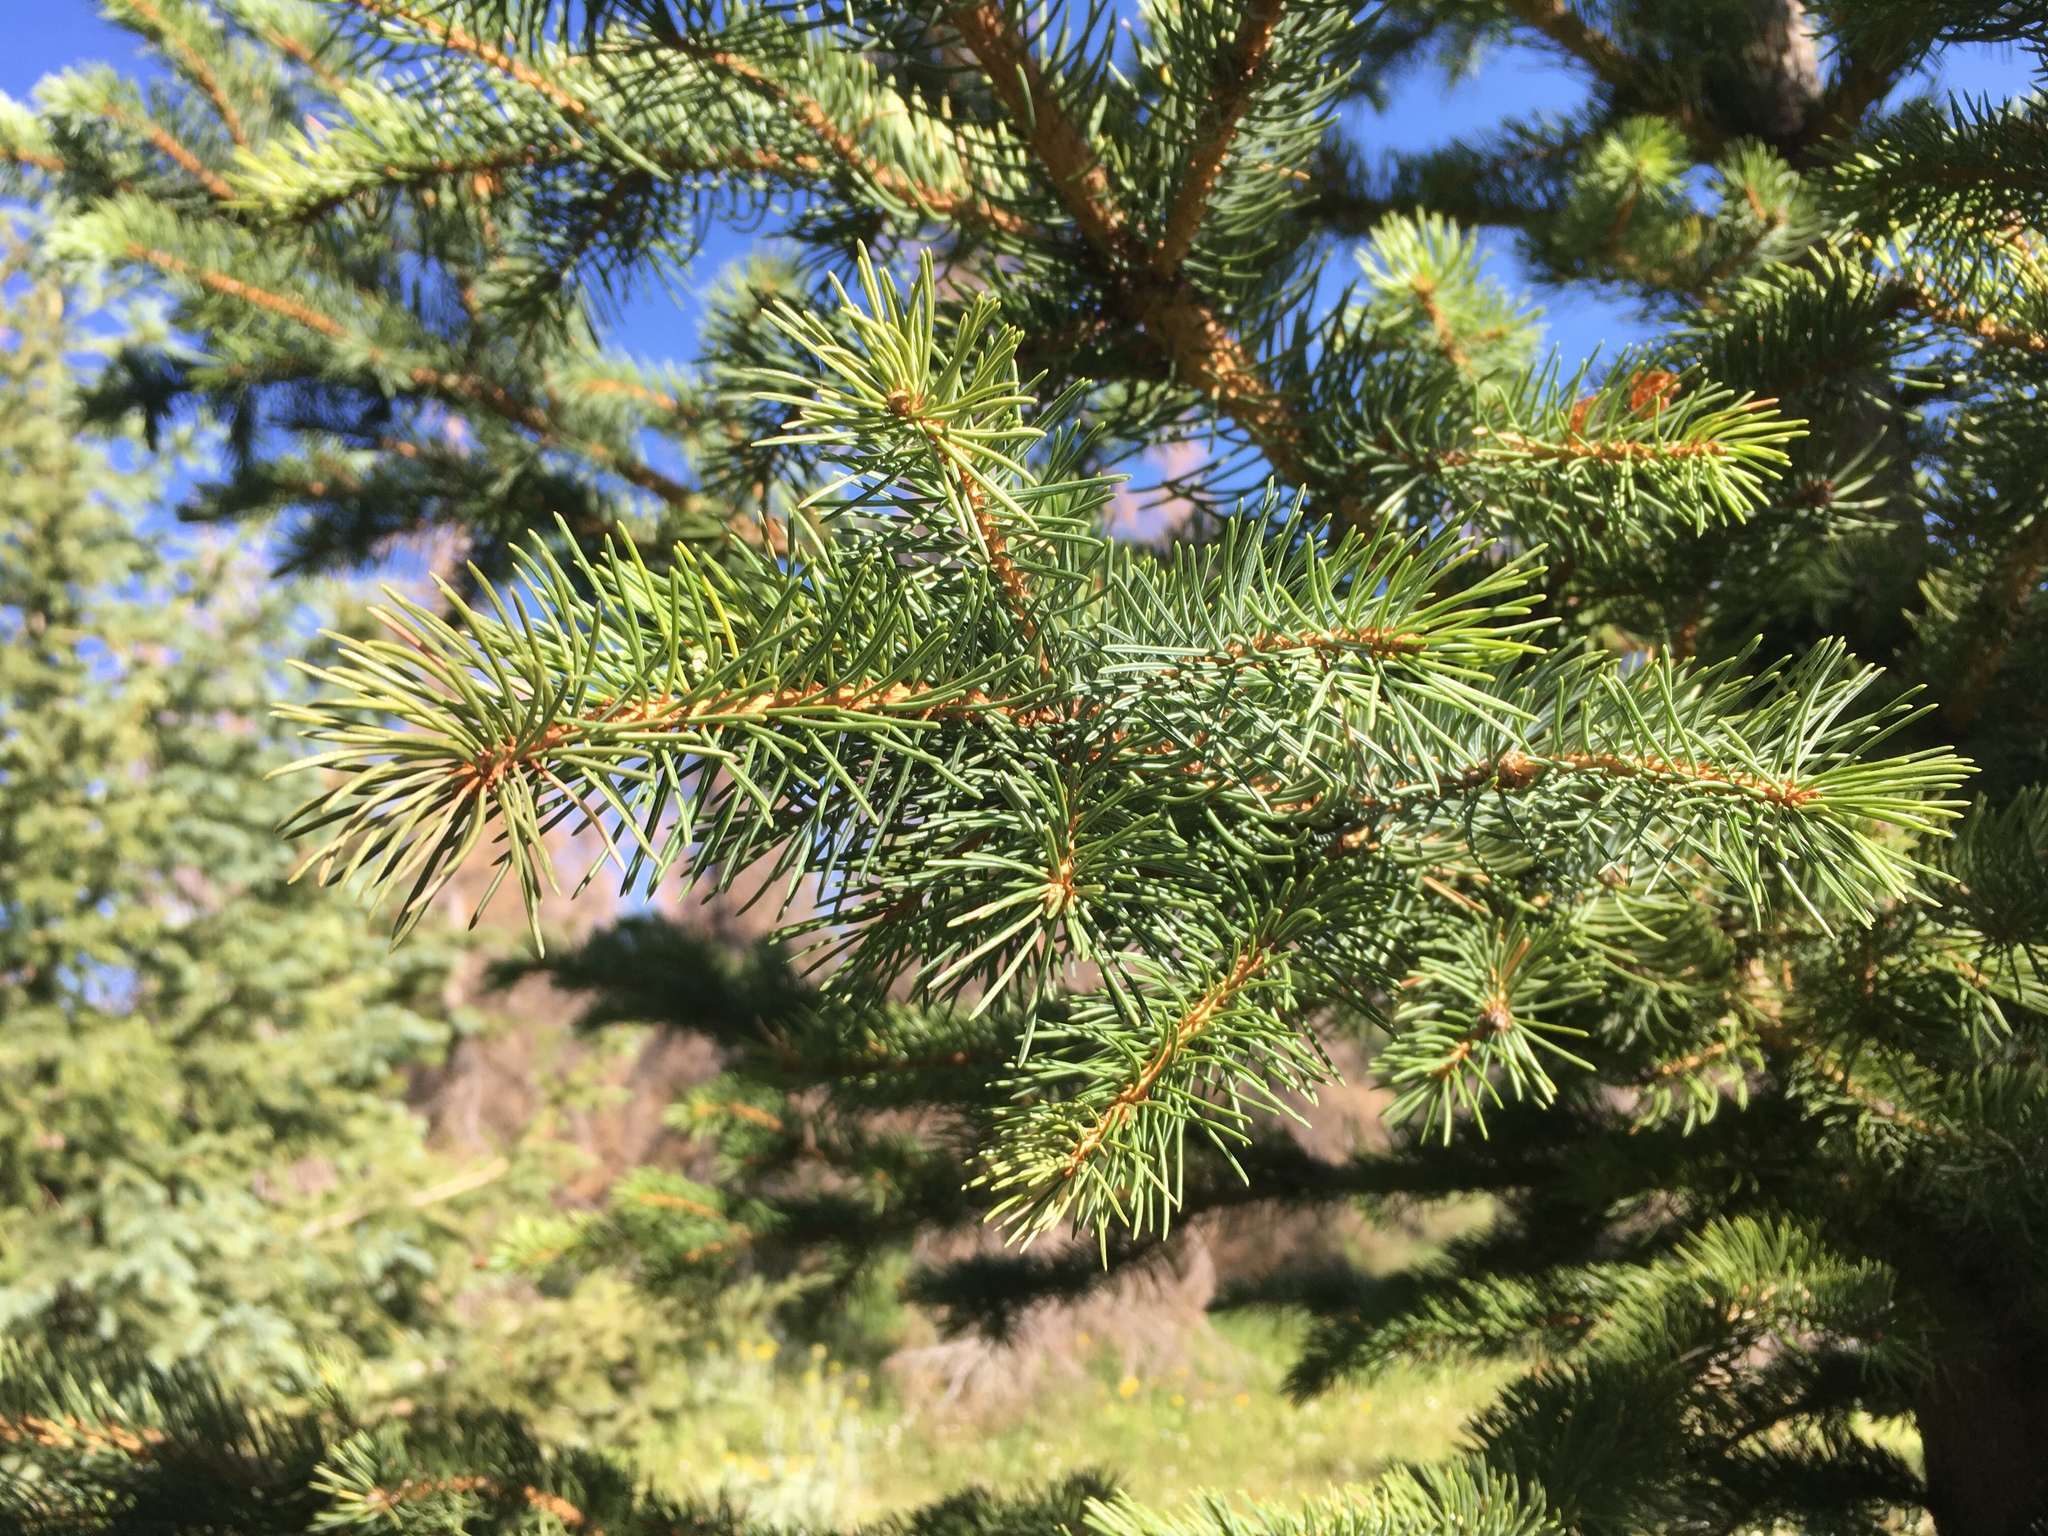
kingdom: Plantae
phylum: Tracheophyta
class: Pinopsida
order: Pinales
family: Pinaceae
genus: Picea
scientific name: Picea engelmannii
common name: Engelmann spruce
